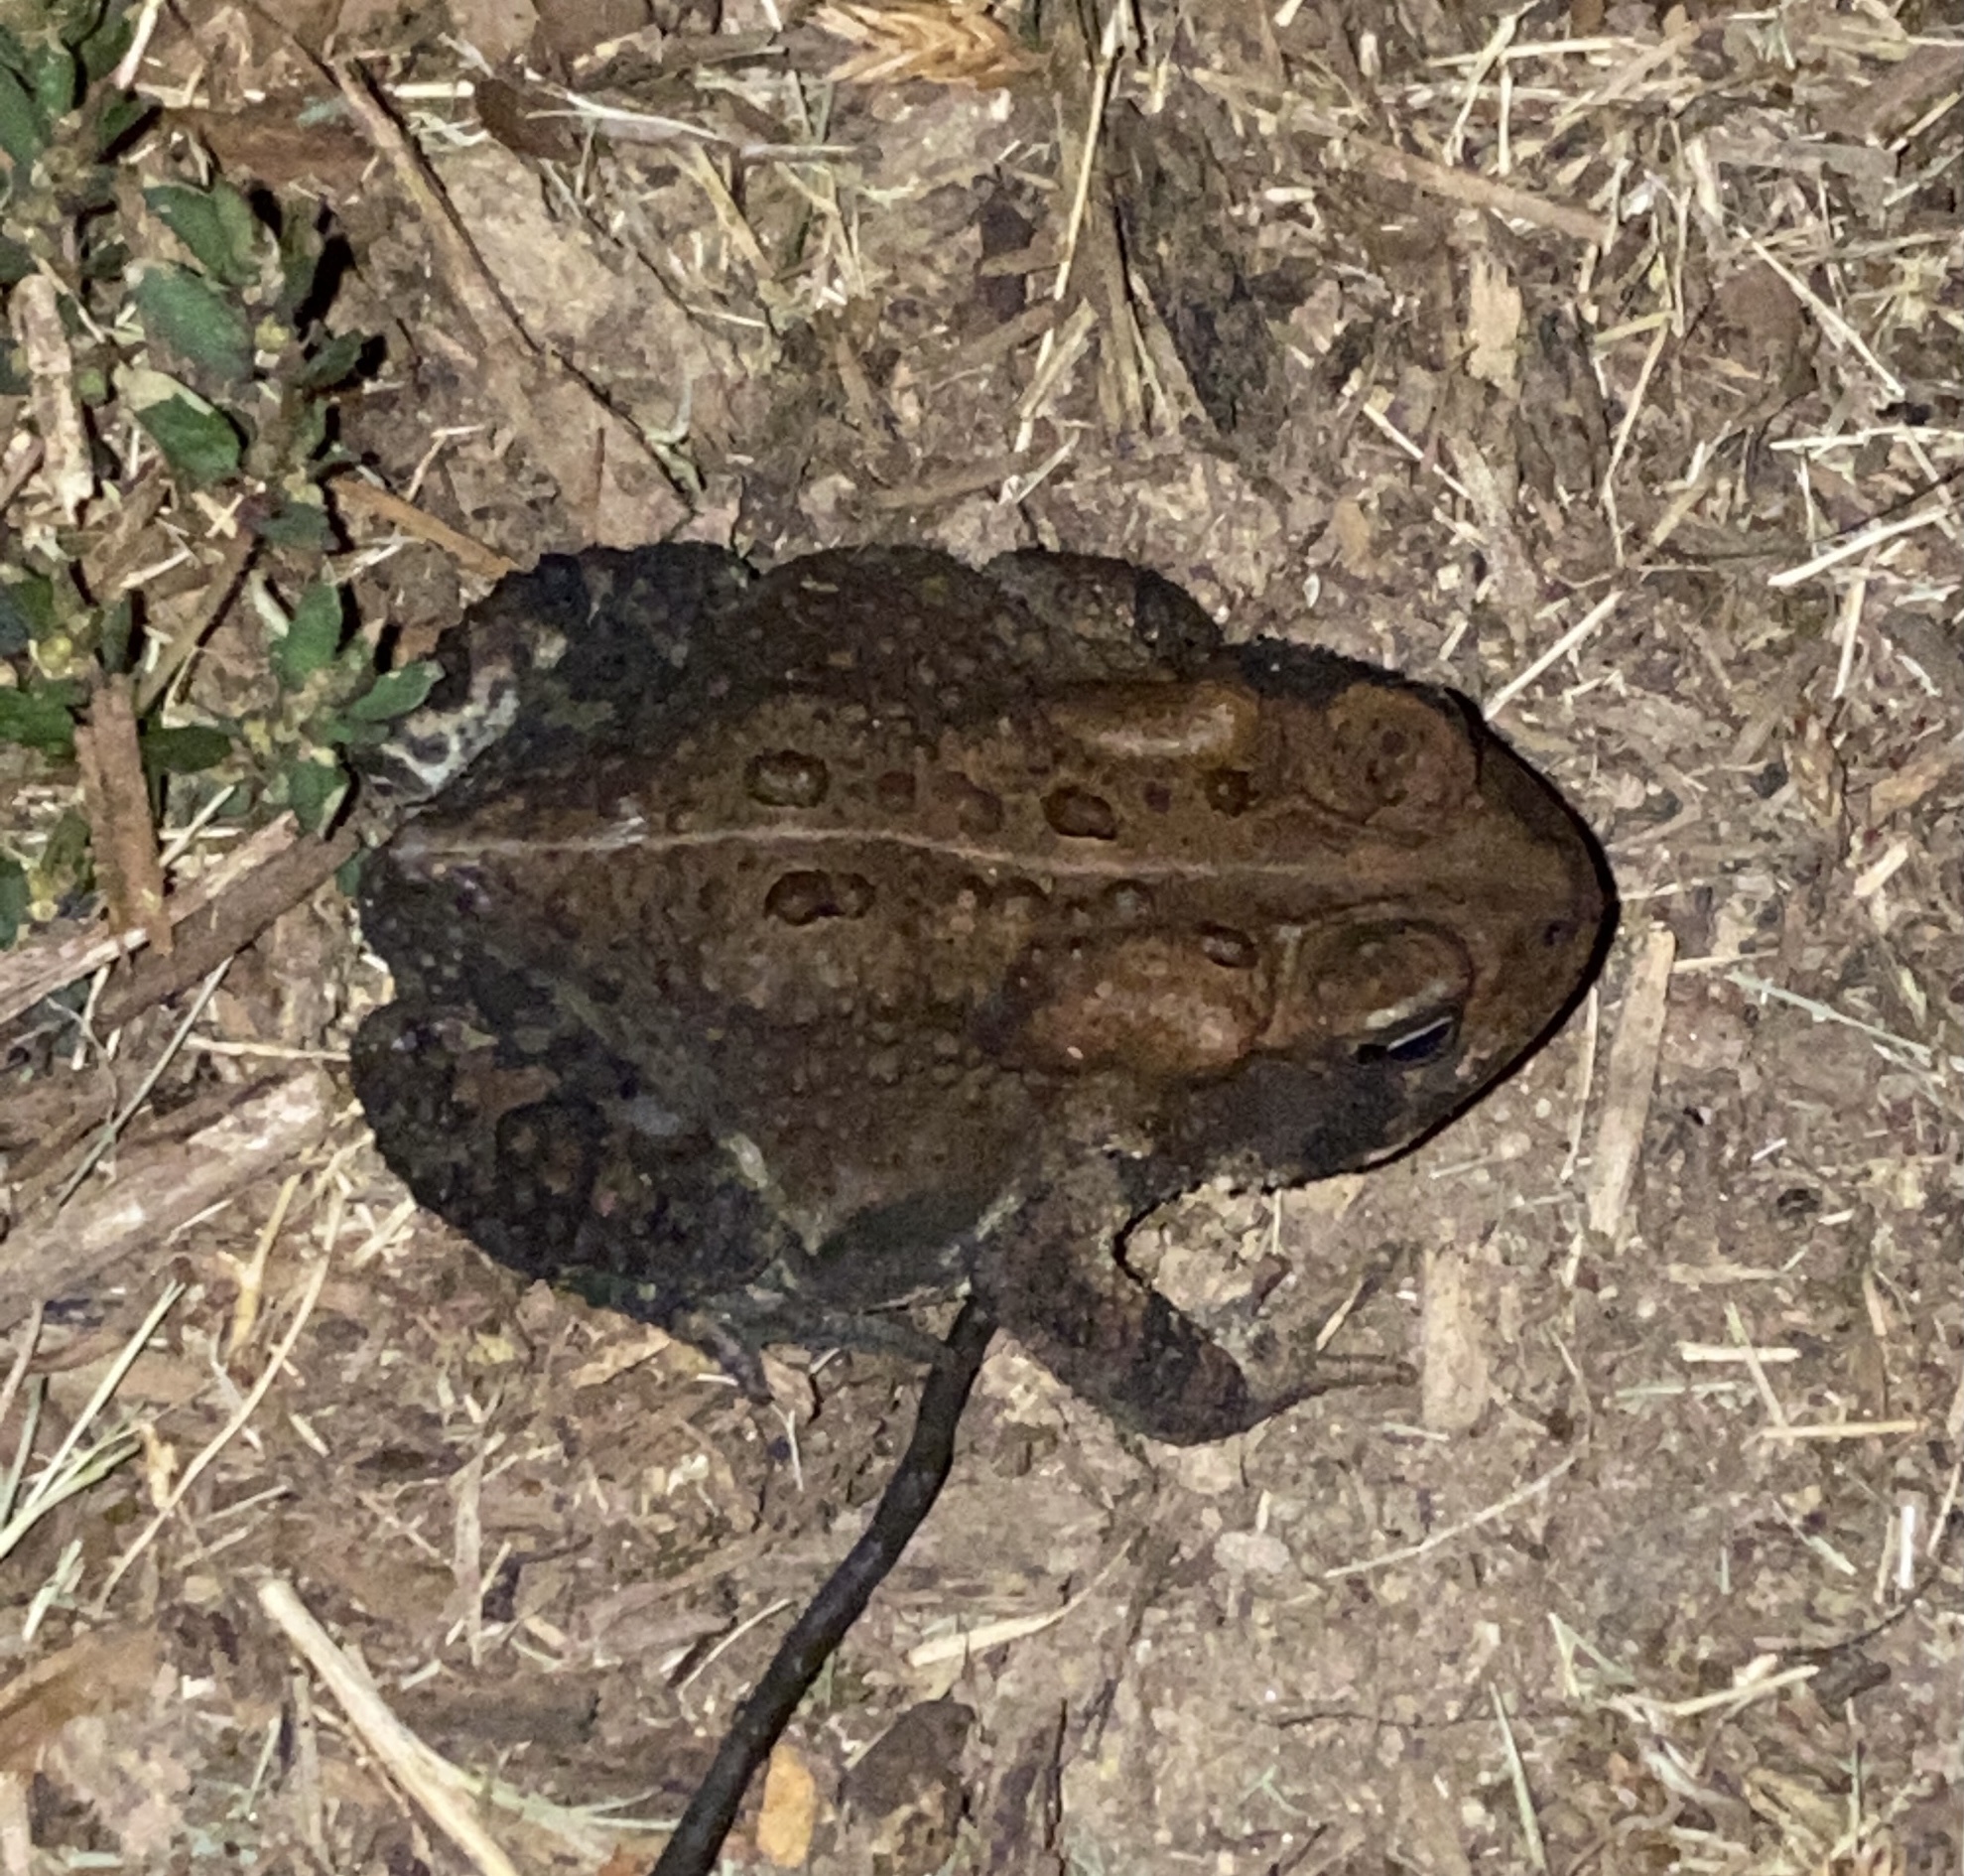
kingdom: Animalia
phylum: Chordata
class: Amphibia
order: Anura
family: Bufonidae
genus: Anaxyrus
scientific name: Anaxyrus americanus
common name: American toad
